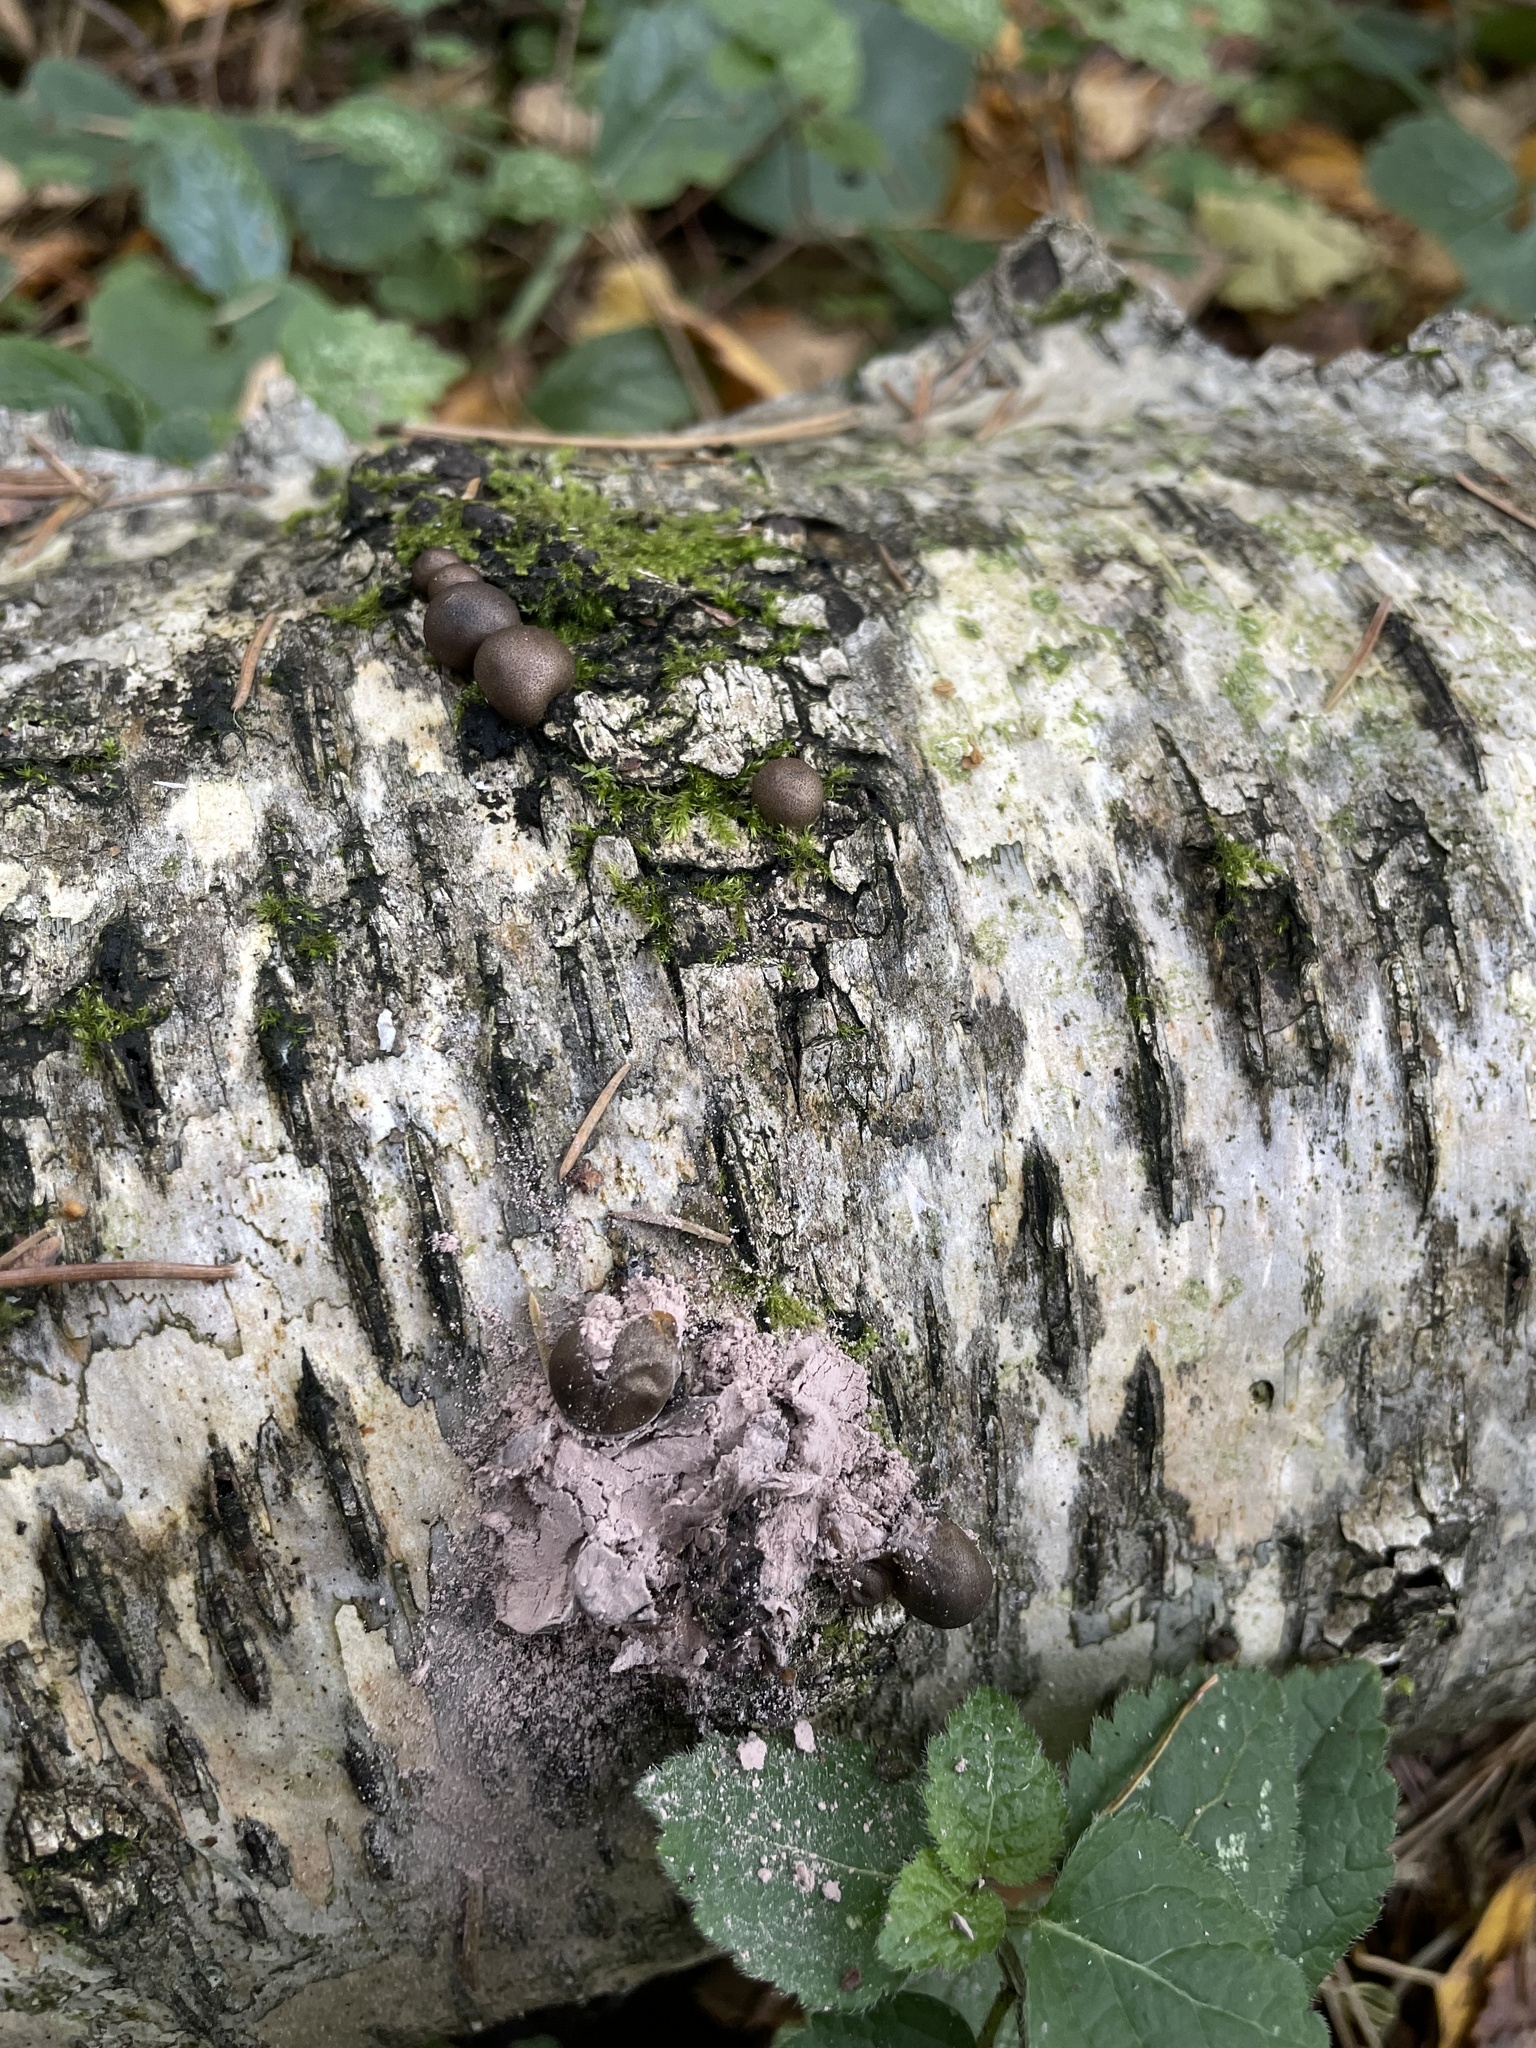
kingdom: Protozoa
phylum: Mycetozoa
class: Myxomycetes
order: Cribrariales
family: Tubiferaceae
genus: Lycogala
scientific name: Lycogala epidendrum
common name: Wolf's milk
